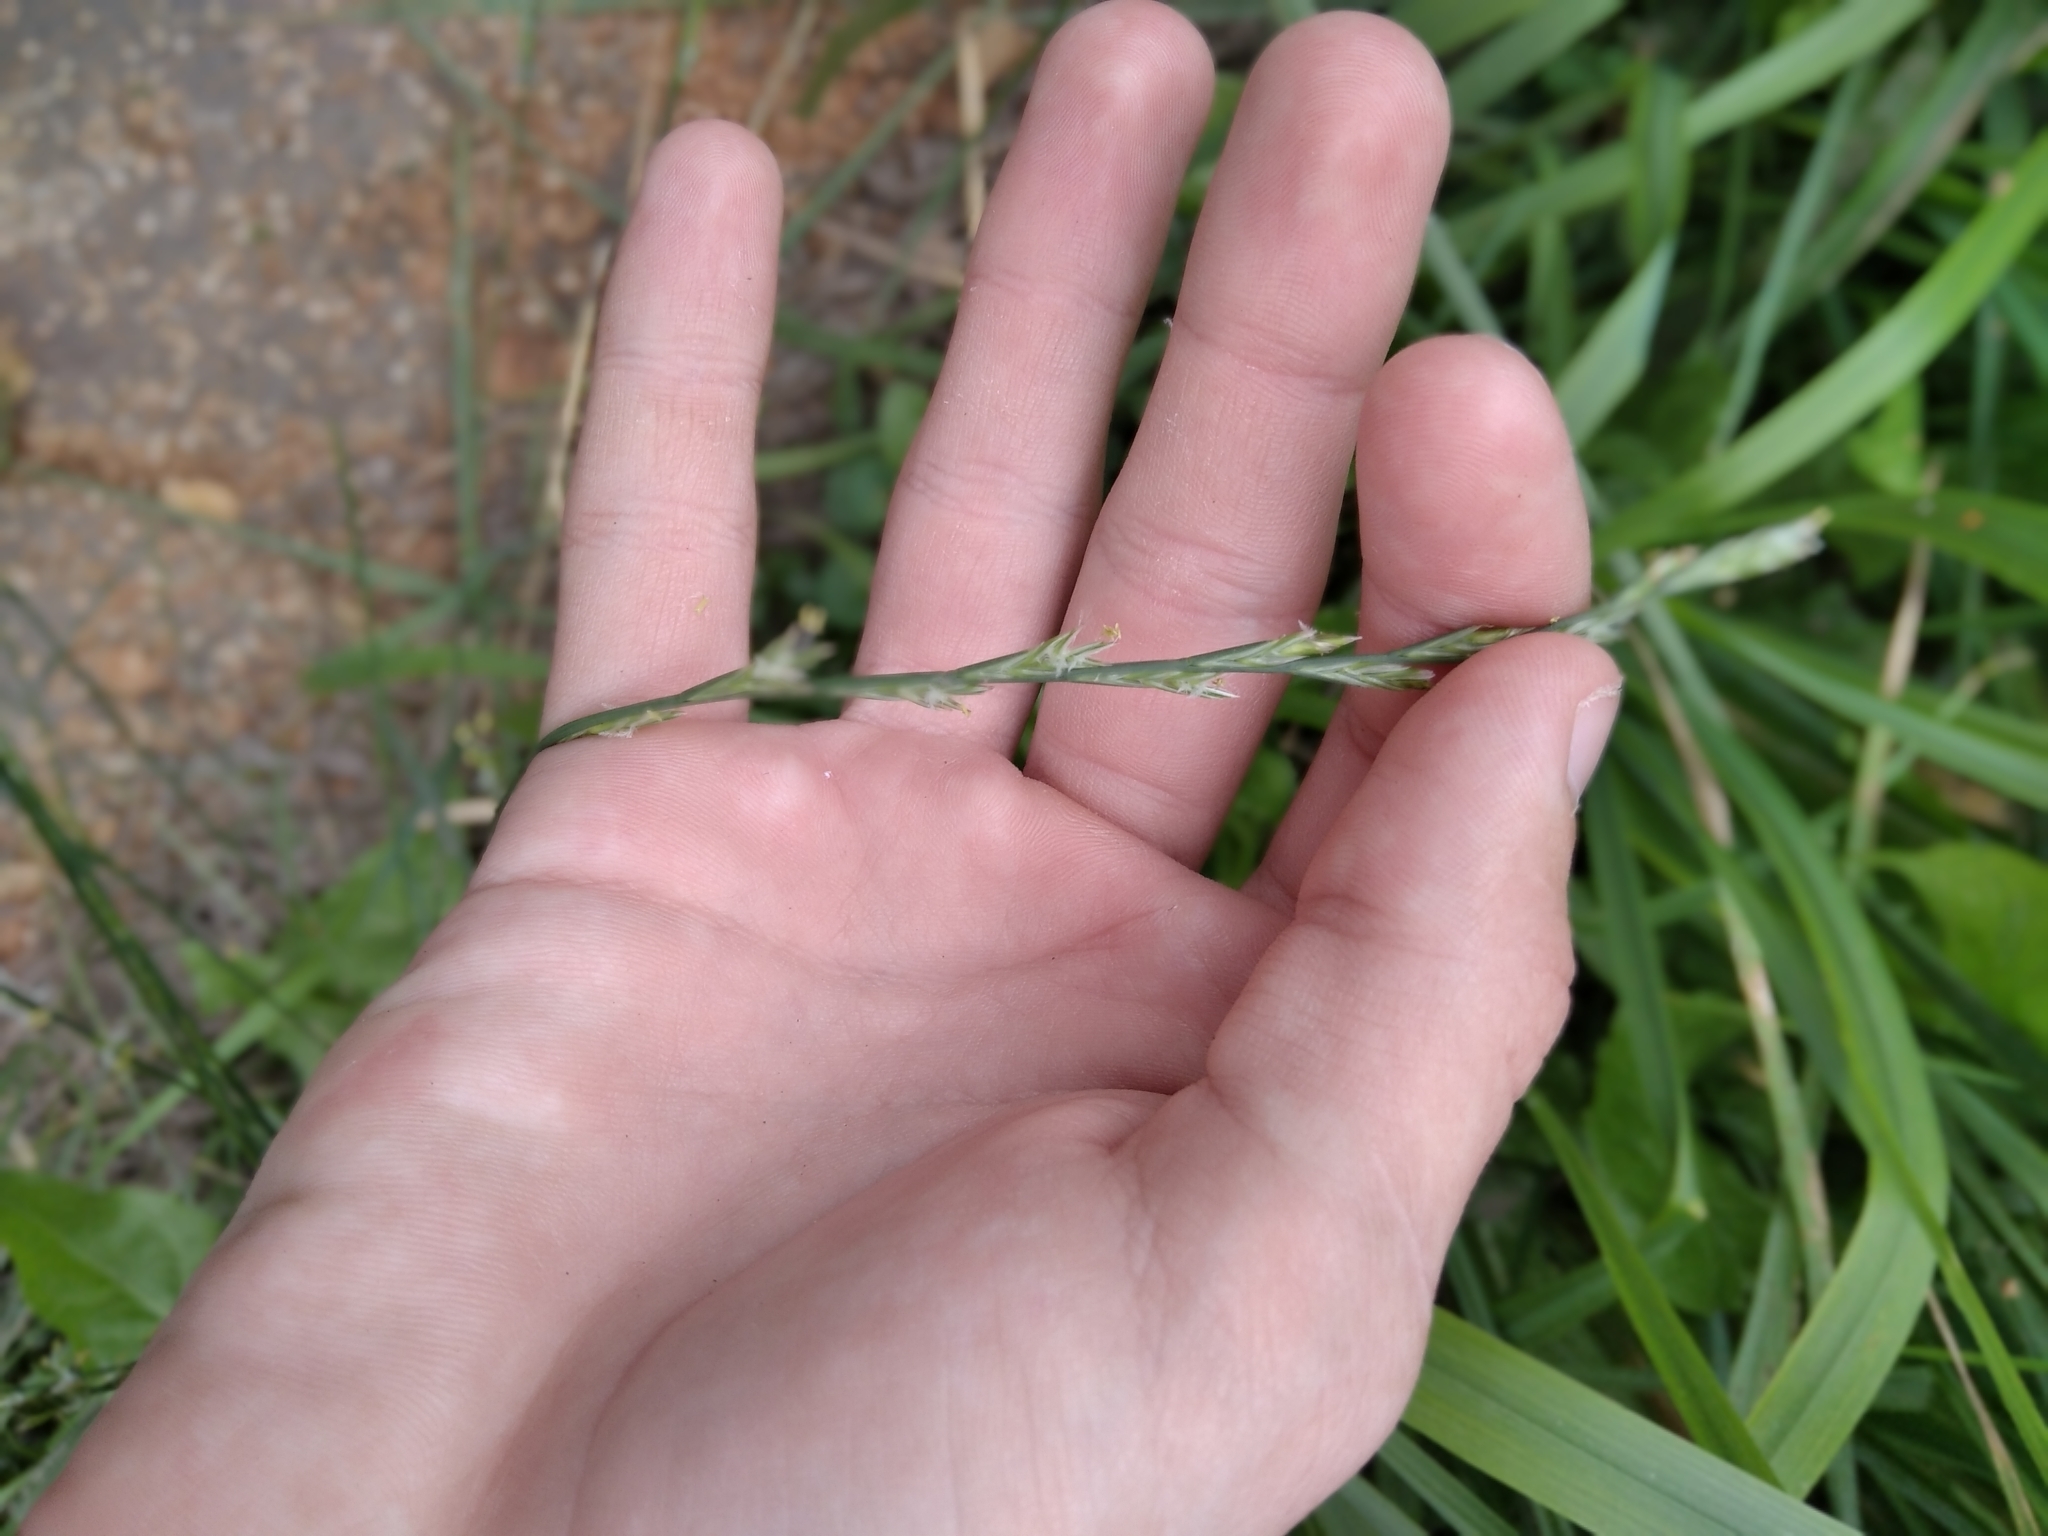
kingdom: Plantae
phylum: Tracheophyta
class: Liliopsida
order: Poales
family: Poaceae
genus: Lolium
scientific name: Lolium perenne
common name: Perennial ryegrass
